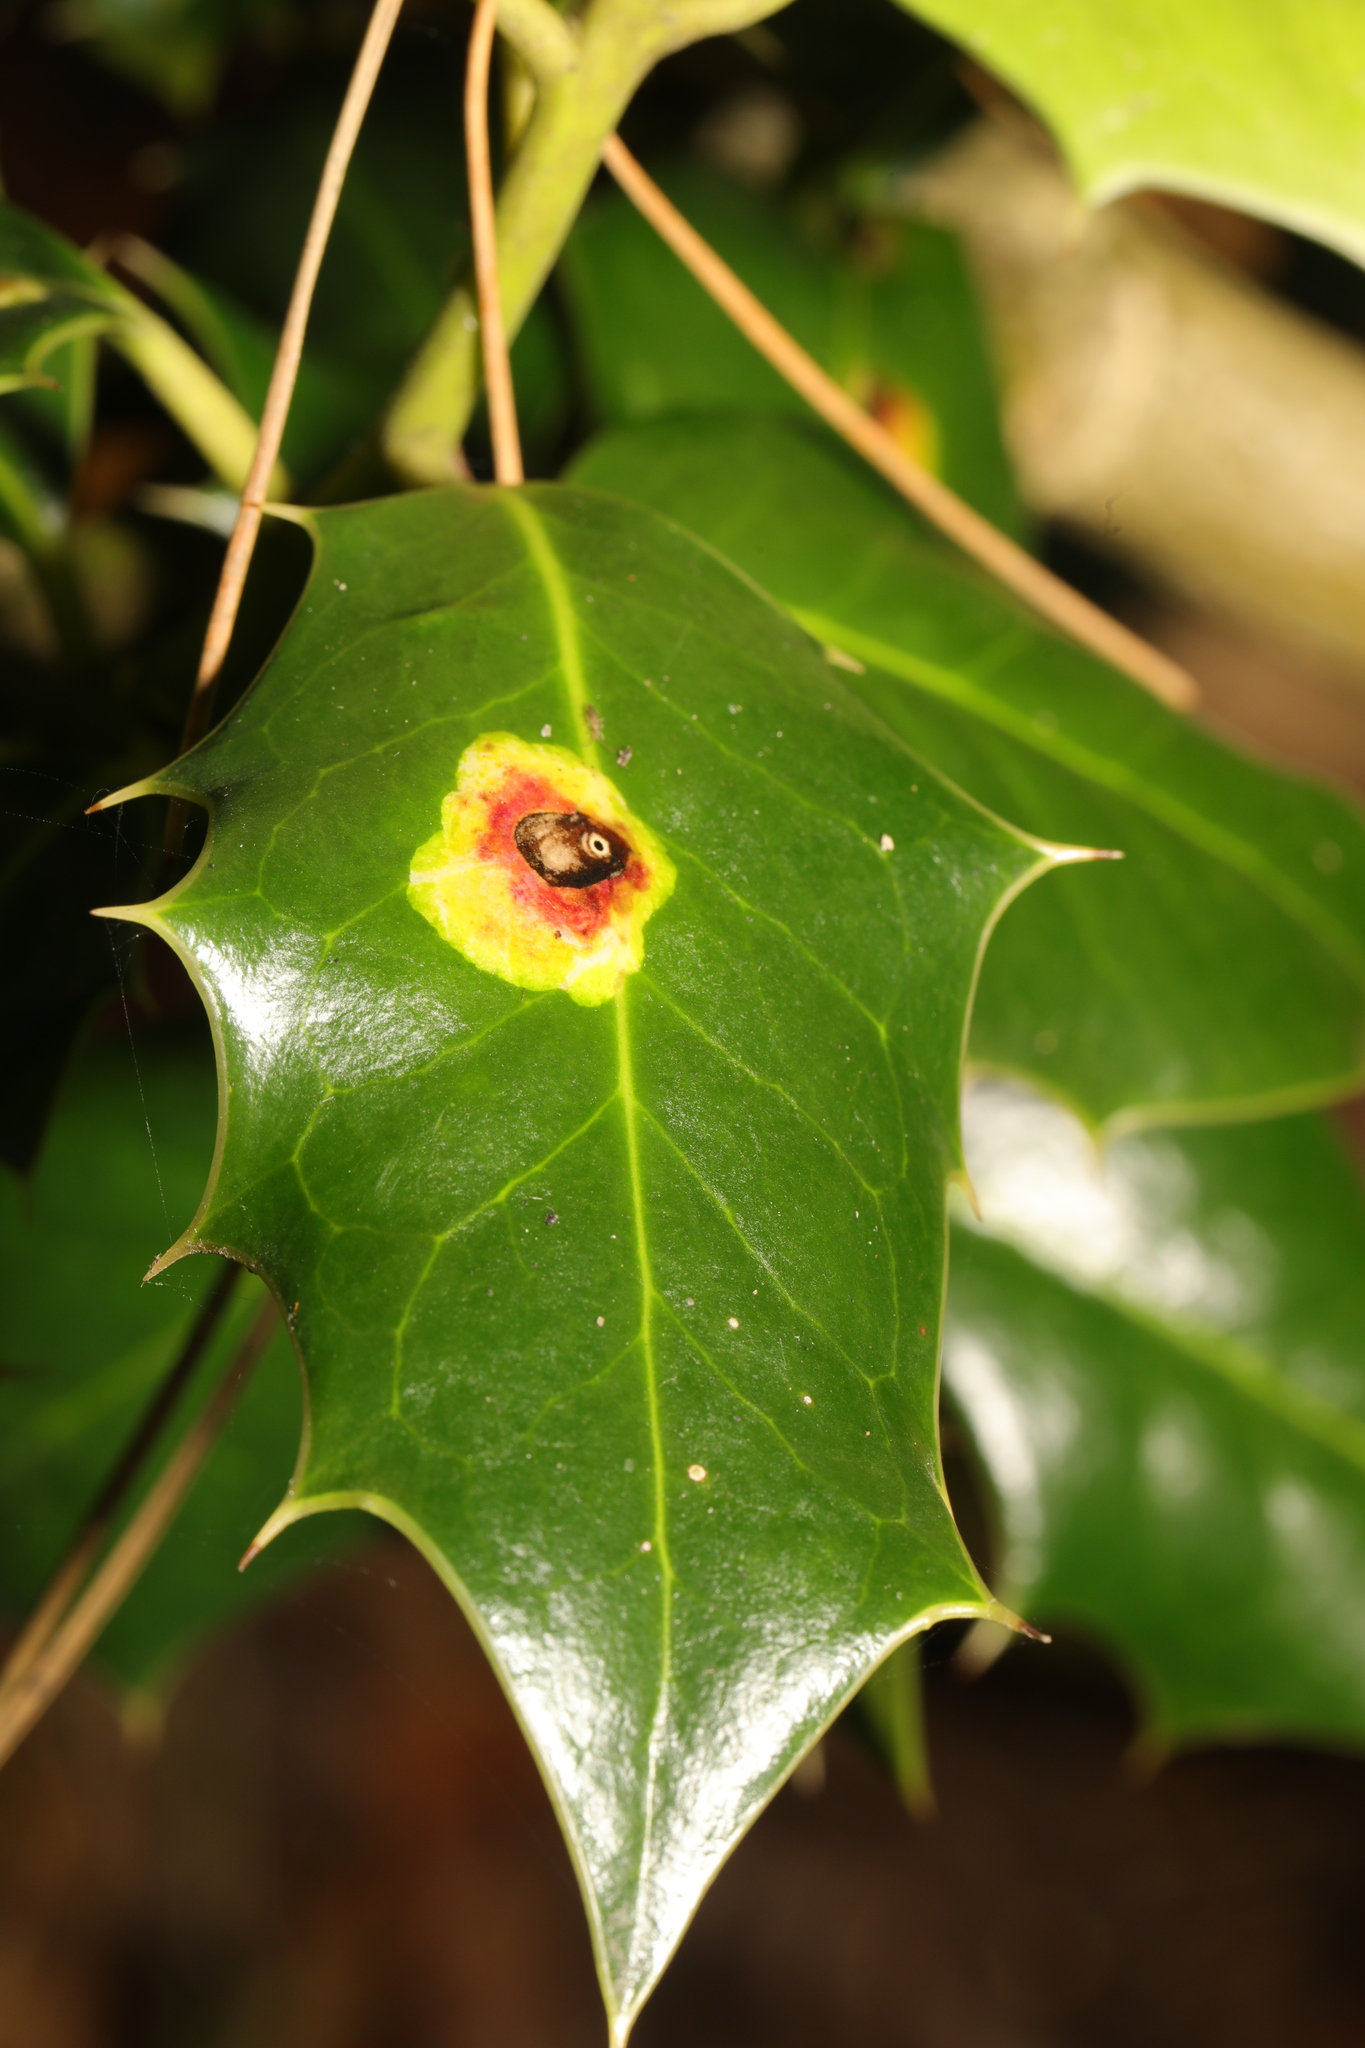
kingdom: Animalia
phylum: Arthropoda
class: Insecta
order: Diptera
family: Agromyzidae
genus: Phytomyza
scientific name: Phytomyza ilicis
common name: Holly leafminer
